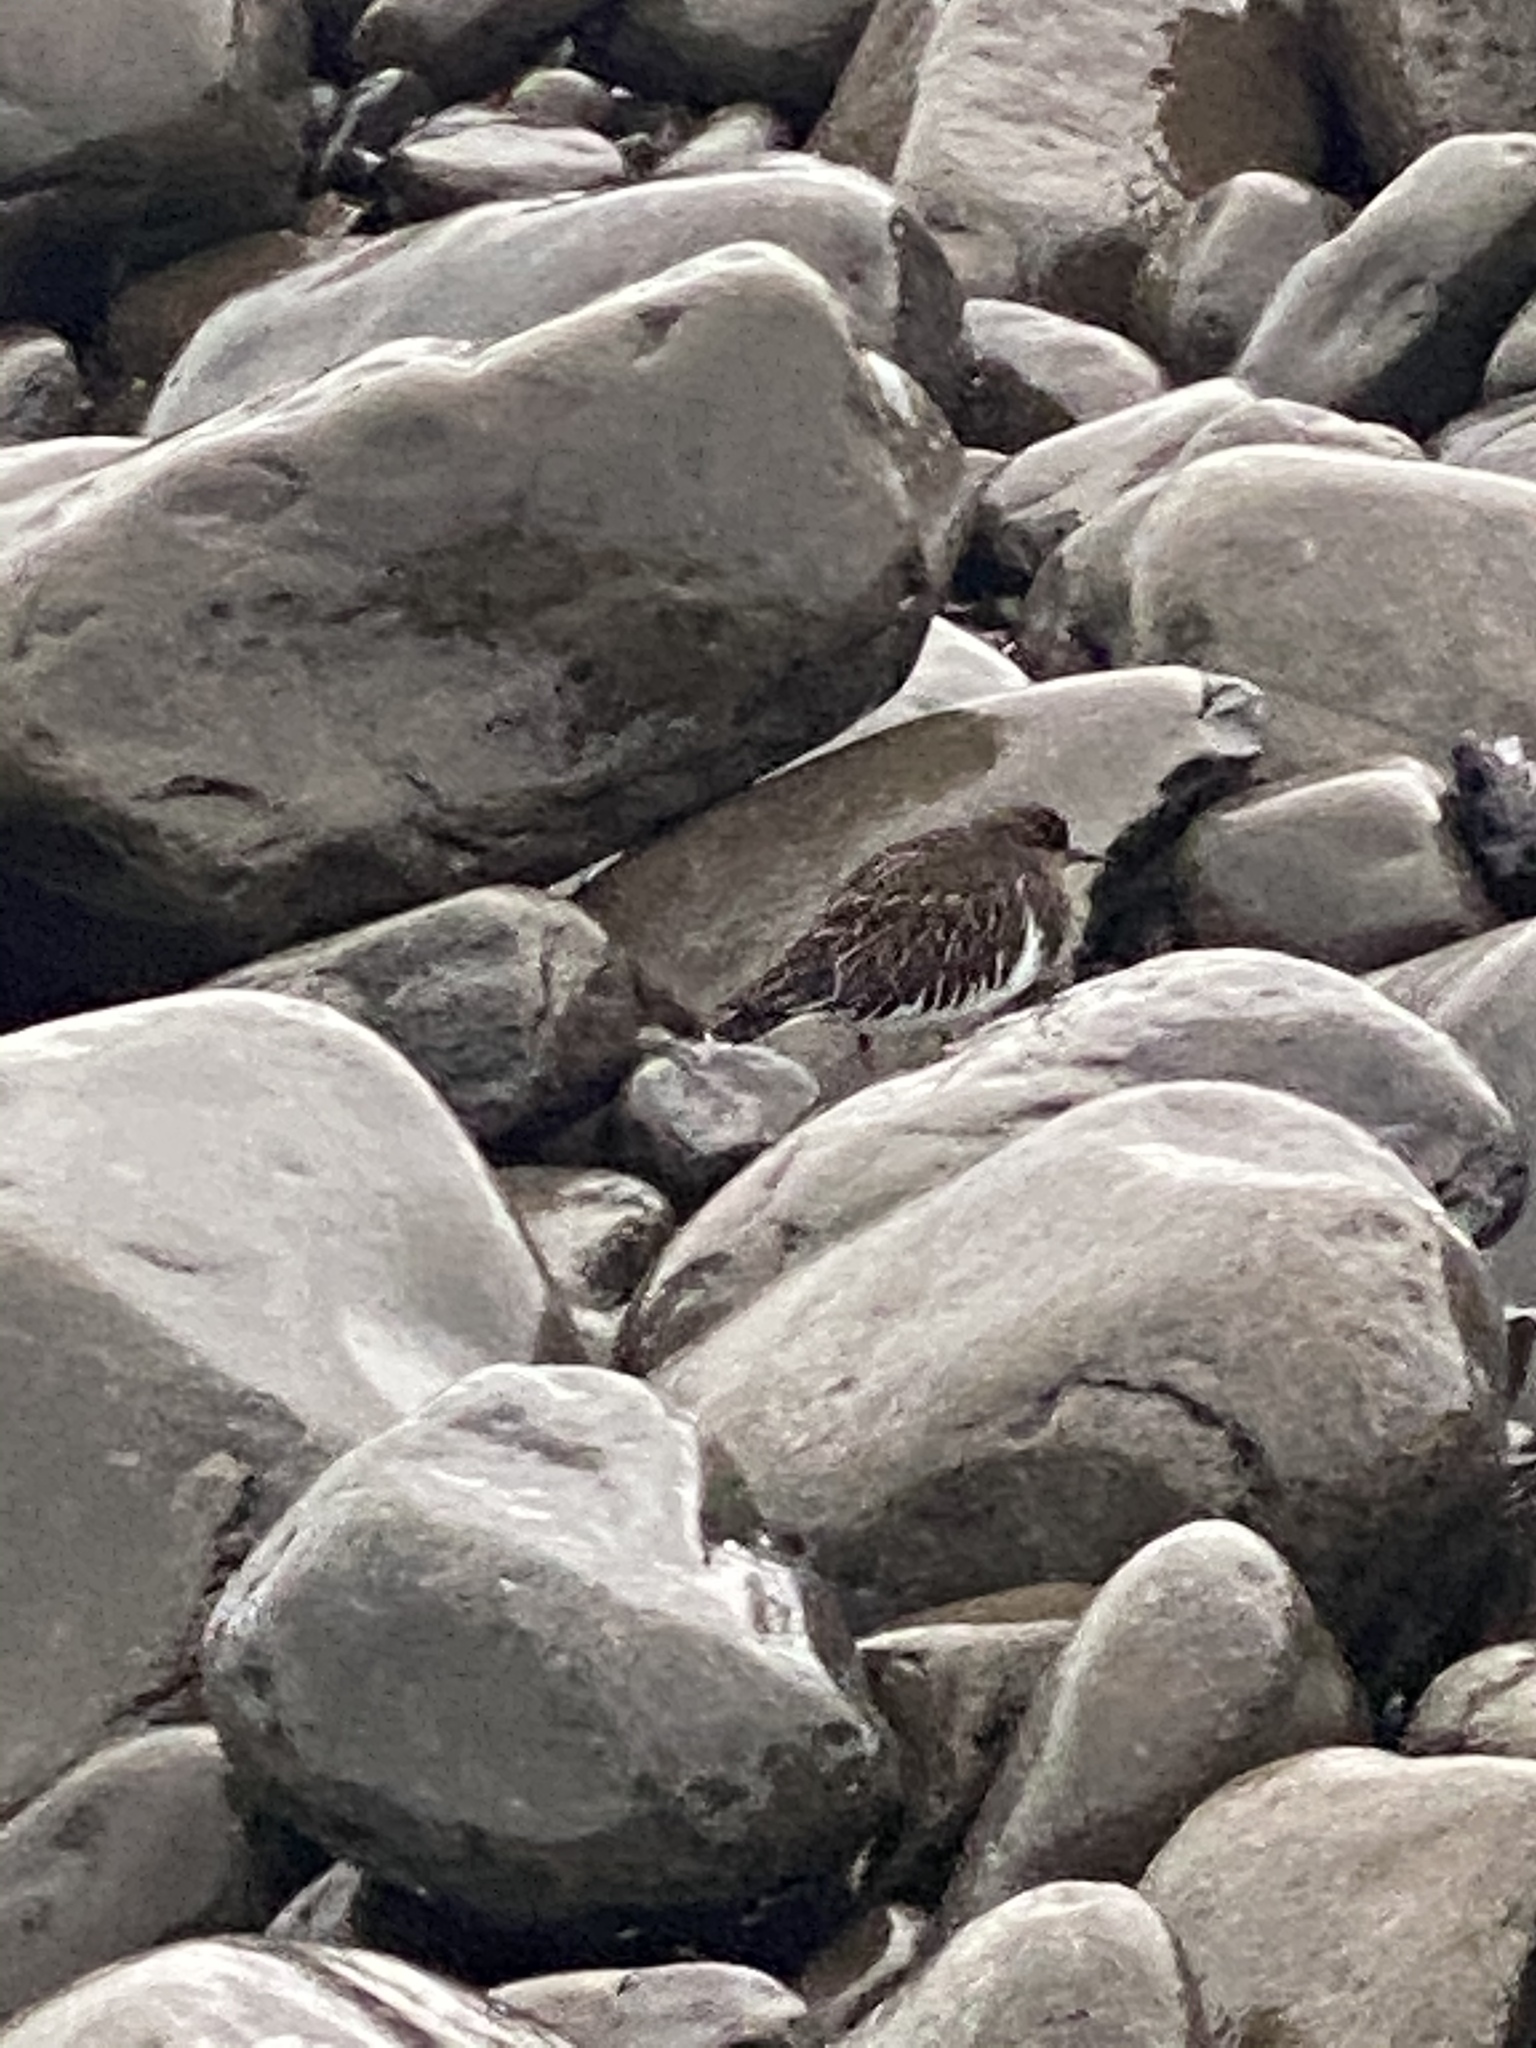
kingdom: Animalia
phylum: Chordata
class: Aves
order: Charadriiformes
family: Scolopacidae
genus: Arenaria
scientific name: Arenaria melanocephala
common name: Black turnstone
